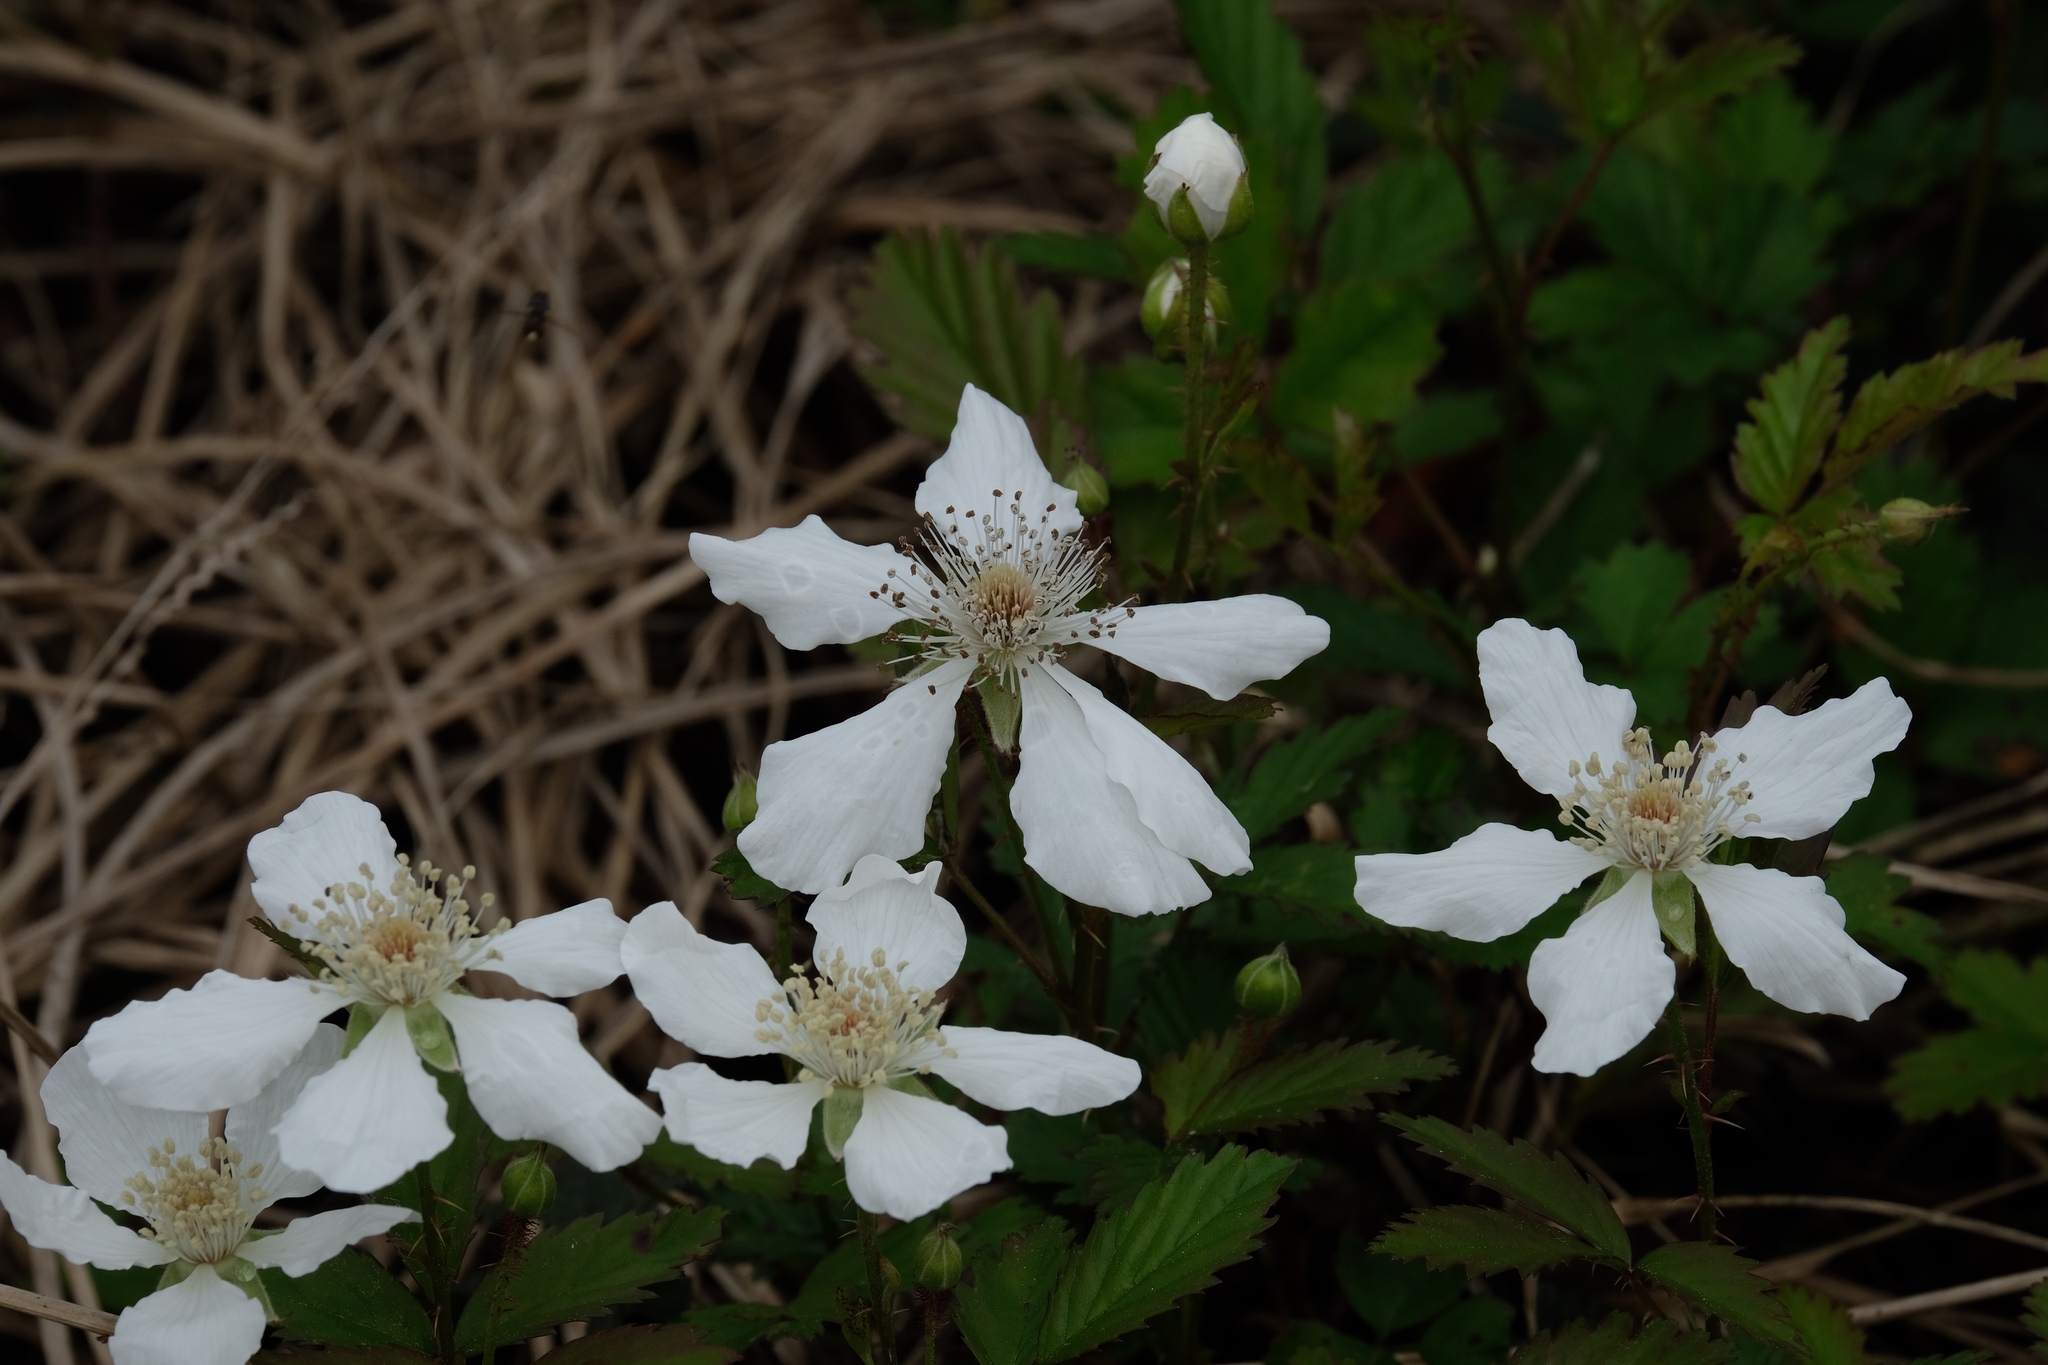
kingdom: Plantae
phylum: Tracheophyta
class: Magnoliopsida
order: Rosales
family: Rosaceae
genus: Rubus
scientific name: Rubus trivialis
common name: Southern dewberry
